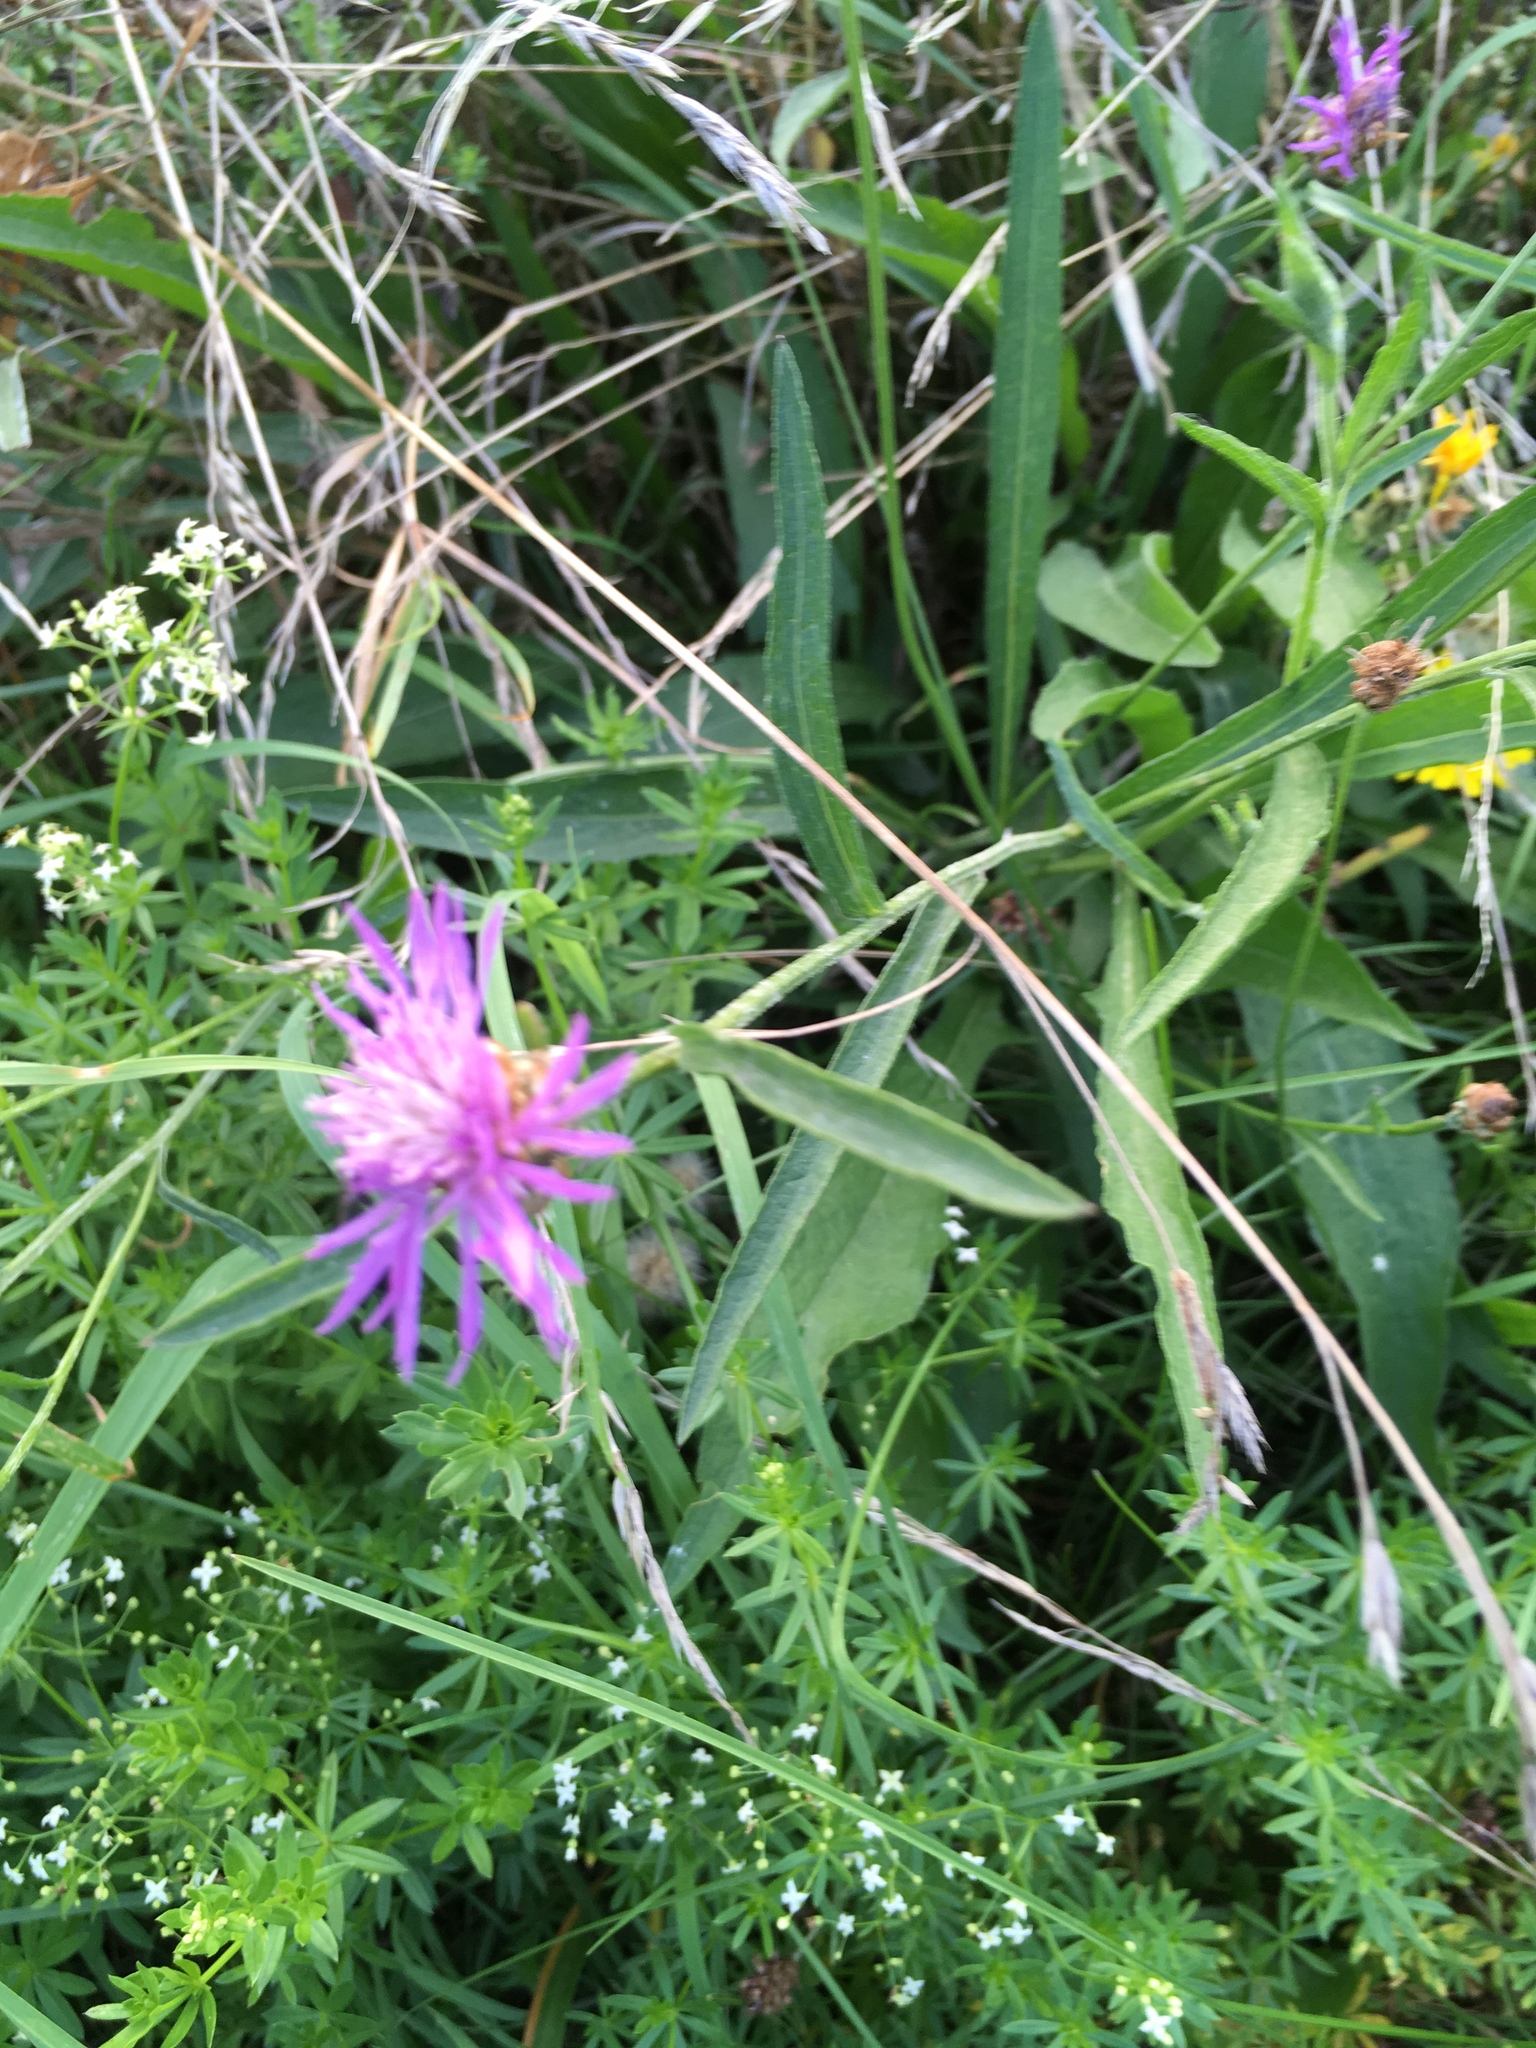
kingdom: Plantae
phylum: Tracheophyta
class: Magnoliopsida
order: Asterales
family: Asteraceae
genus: Centaurea
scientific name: Centaurea jacea
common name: Brown knapweed
